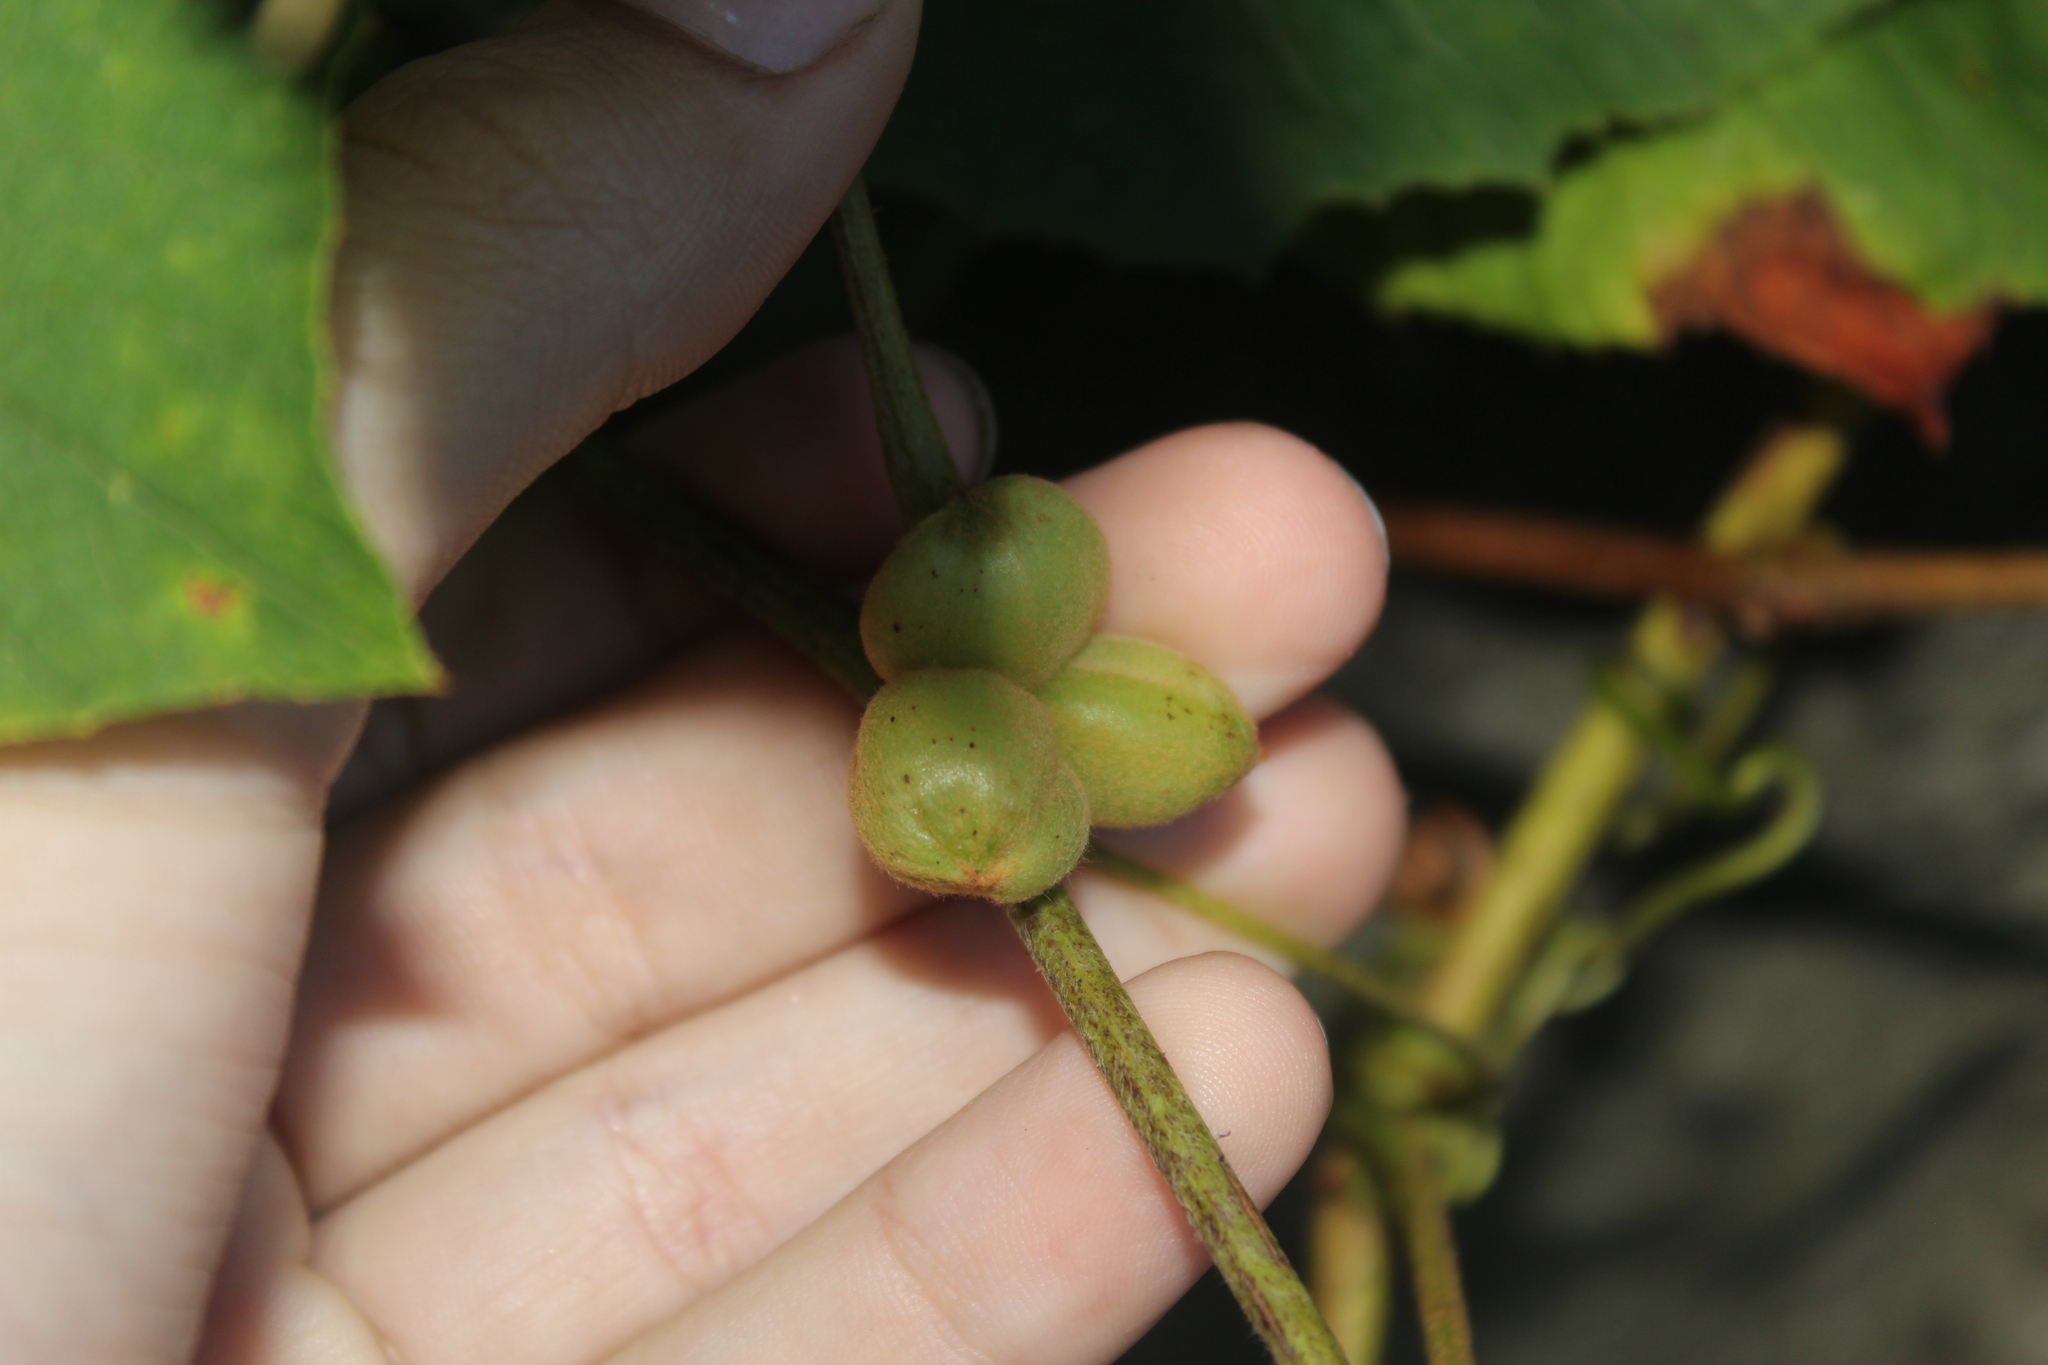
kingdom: Animalia
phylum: Arthropoda
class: Insecta
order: Diptera
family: Cecidomyiidae
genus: Ampelomyia
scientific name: Ampelomyia vitispomum
